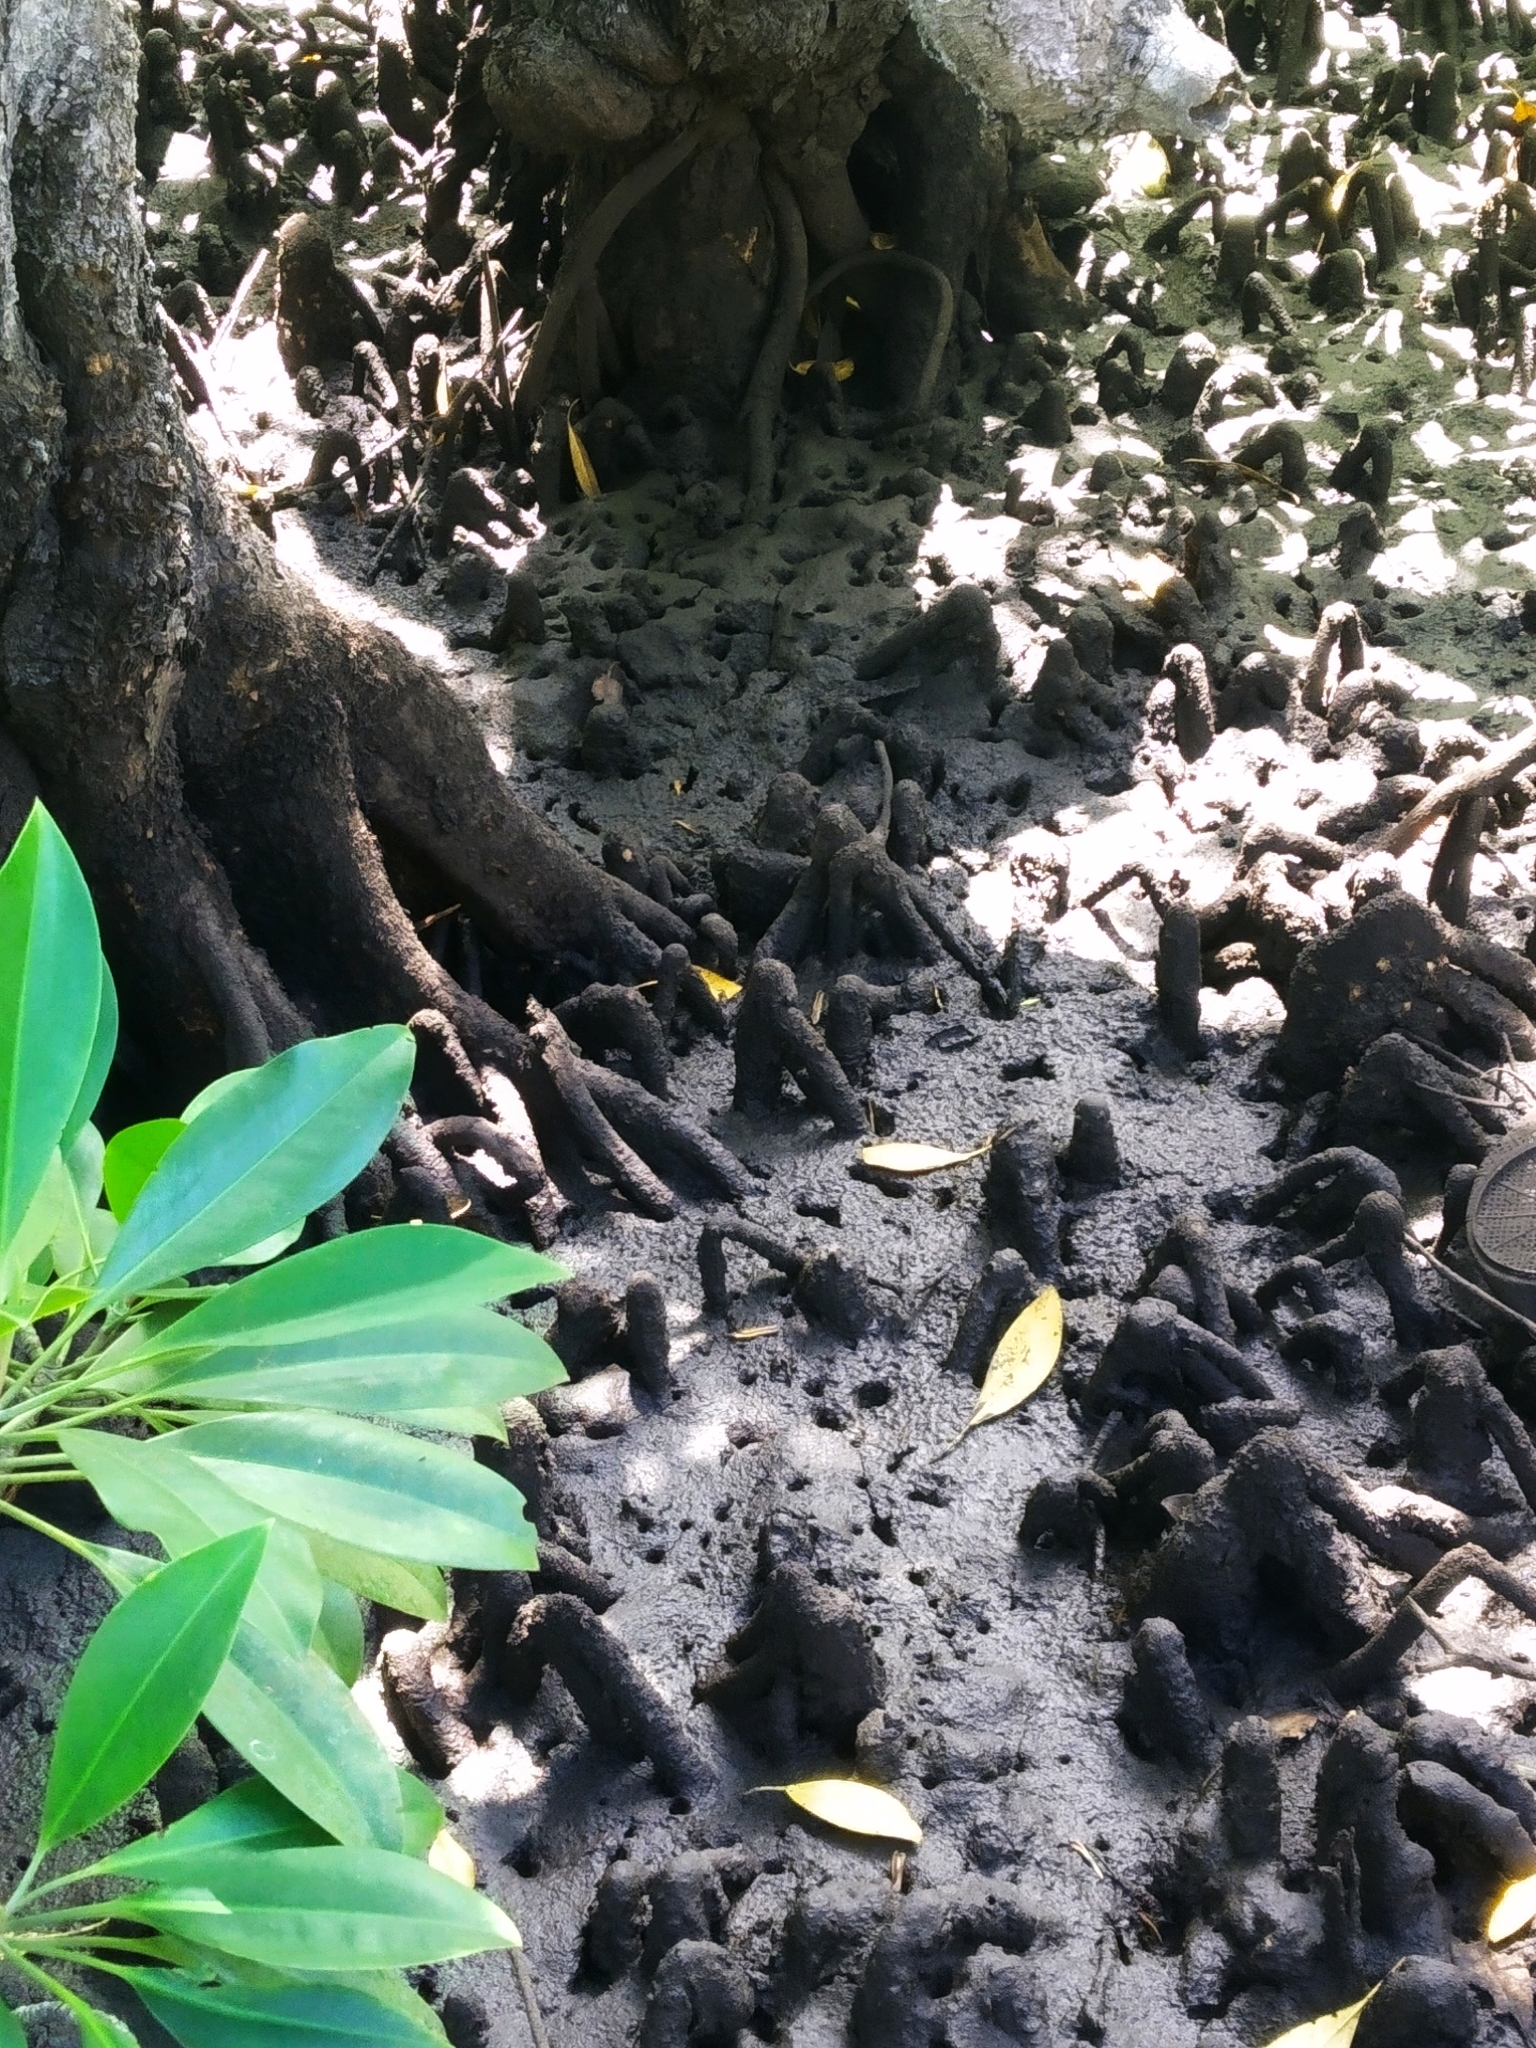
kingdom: Plantae
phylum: Tracheophyta
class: Magnoliopsida
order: Malpighiales
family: Rhizophoraceae
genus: Bruguiera
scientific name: Bruguiera gymnorhiza
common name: Oriental mangrove
